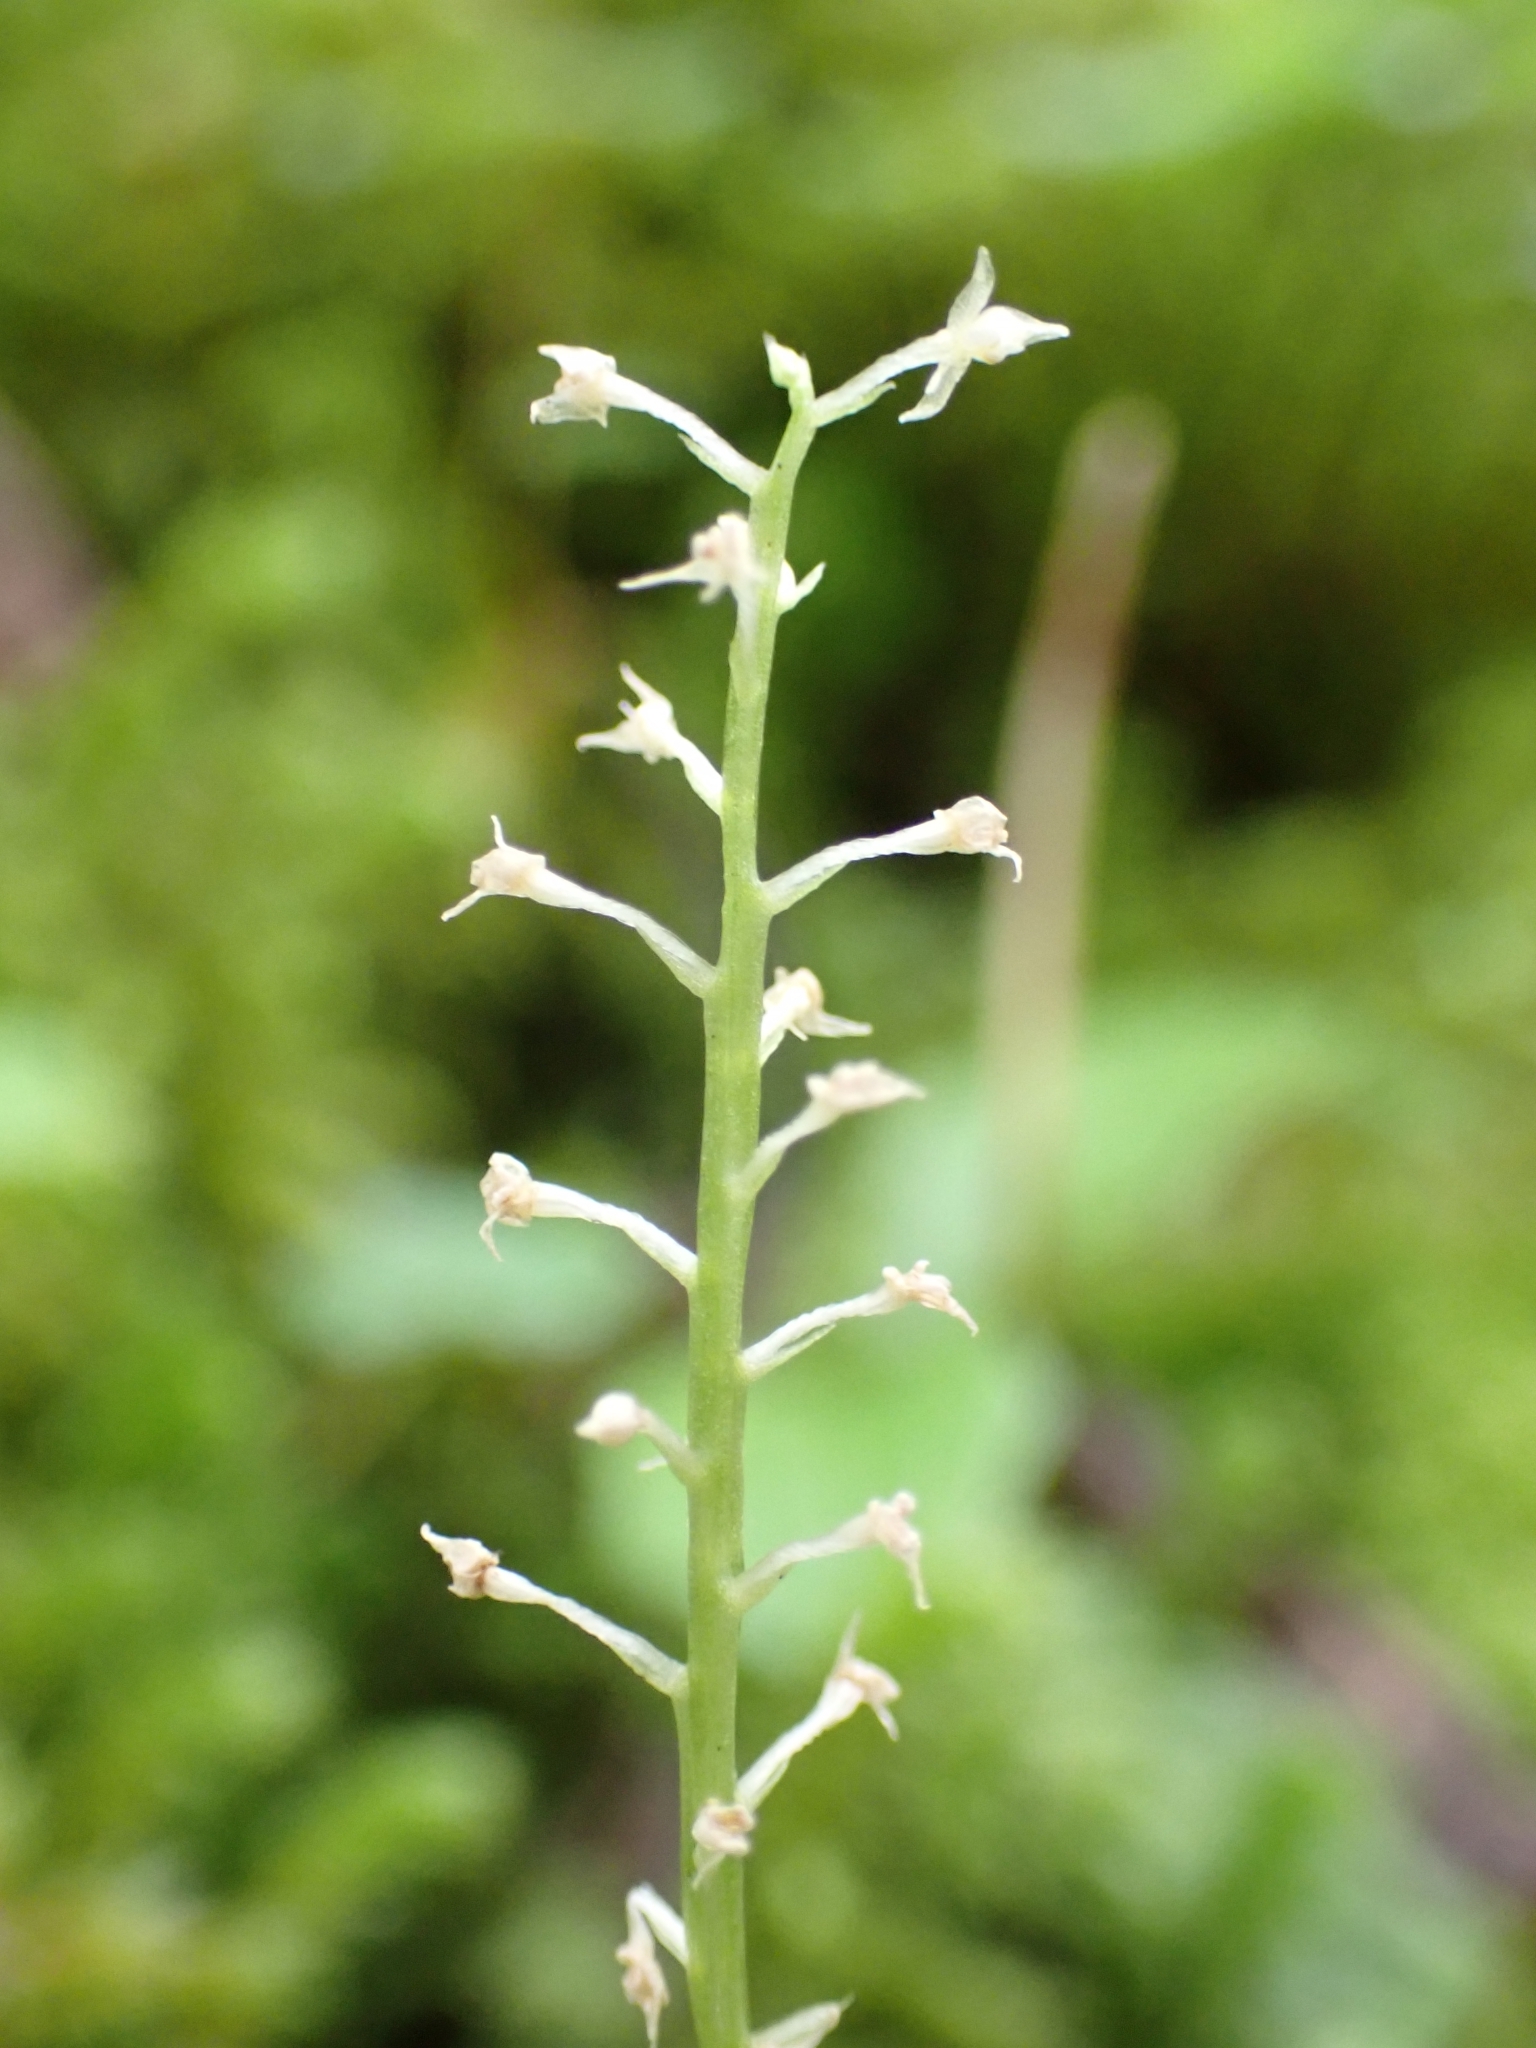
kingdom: Plantae
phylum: Tracheophyta
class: Liliopsida
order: Asparagales
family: Orchidaceae
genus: Malaxis
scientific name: Malaxis monophyllos
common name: White adder's-mouth
